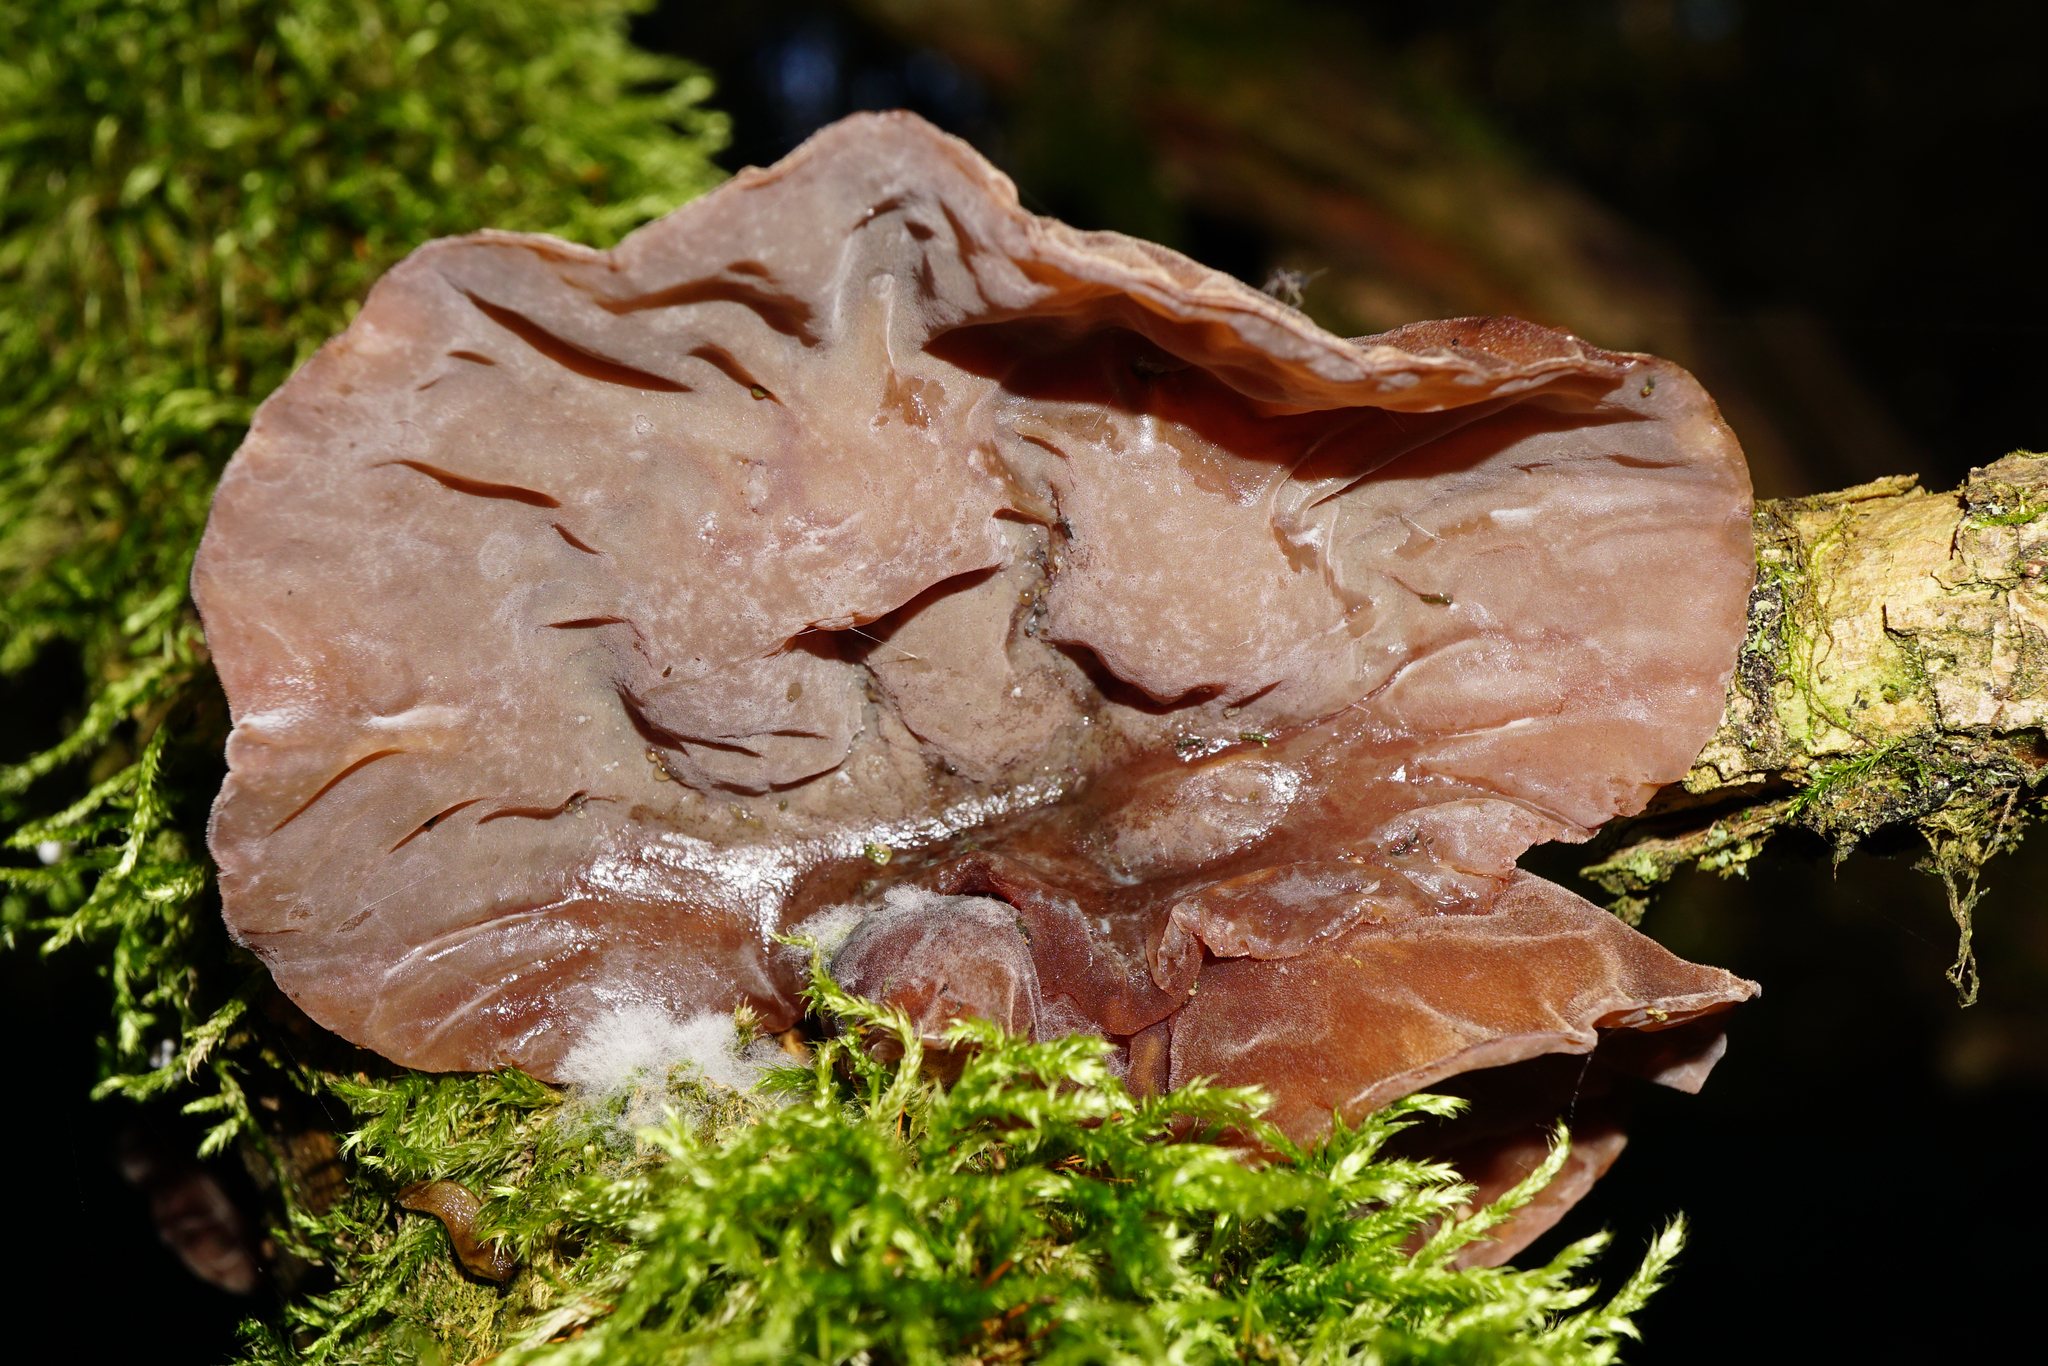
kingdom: Fungi
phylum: Basidiomycota
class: Agaricomycetes
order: Auriculariales
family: Auriculariaceae
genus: Auricularia
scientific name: Auricularia auricula-judae
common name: Jelly ear
